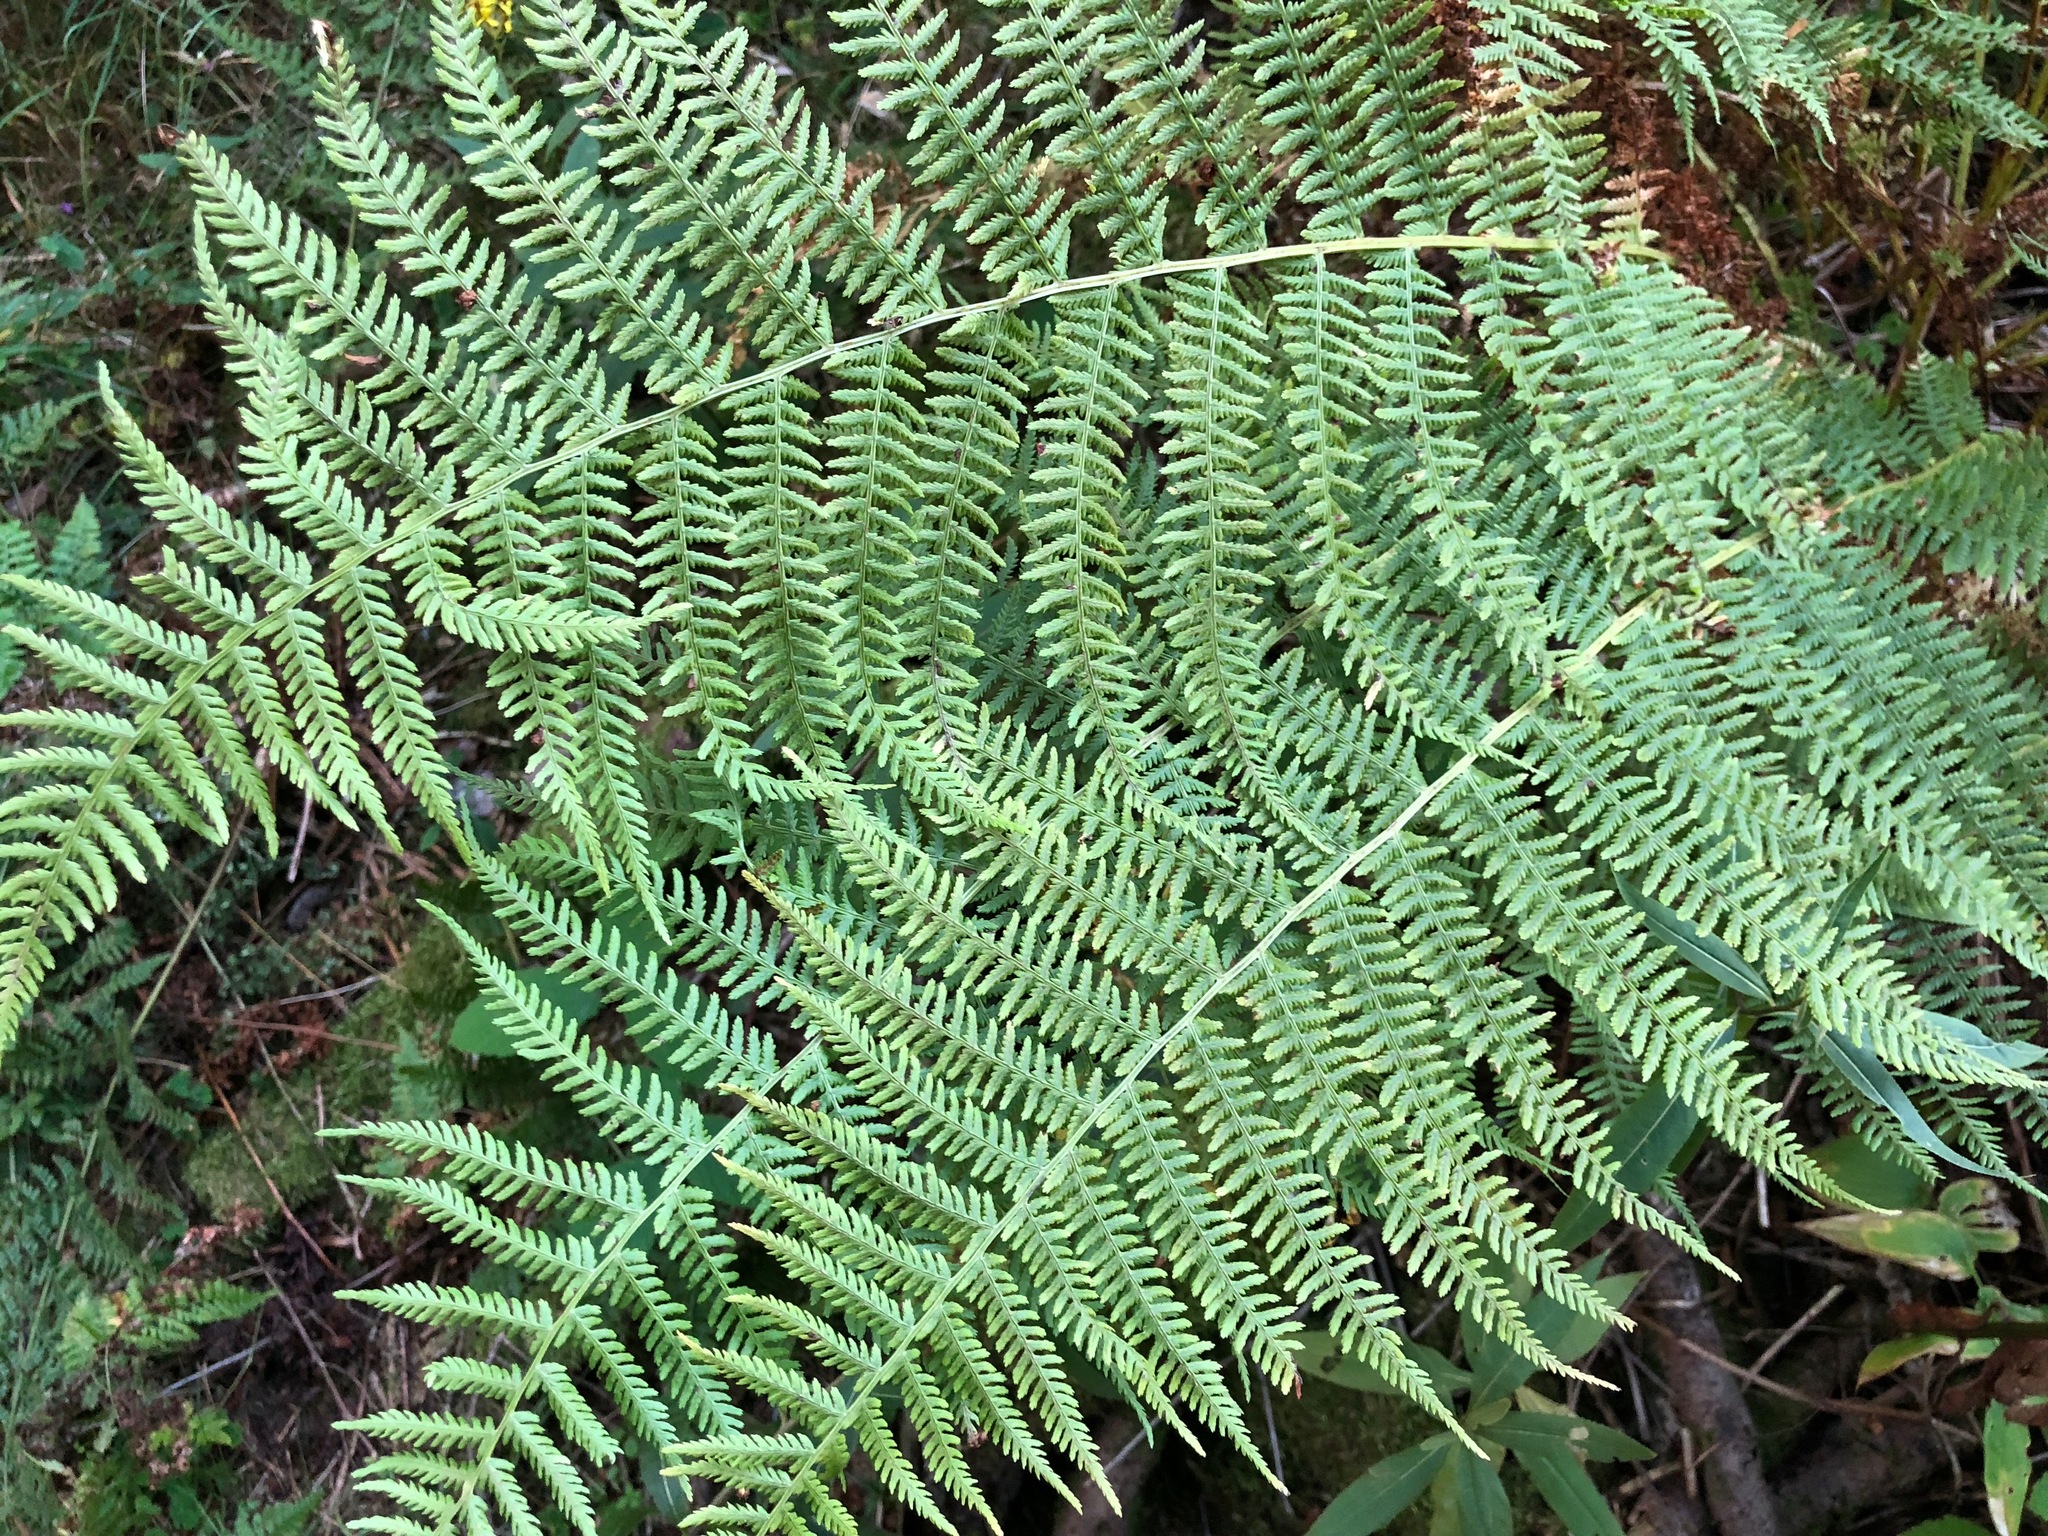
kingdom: Plantae
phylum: Tracheophyta
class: Polypodiopsida
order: Polypodiales
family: Athyriaceae
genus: Athyrium
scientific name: Athyrium filix-femina
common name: Lady fern
